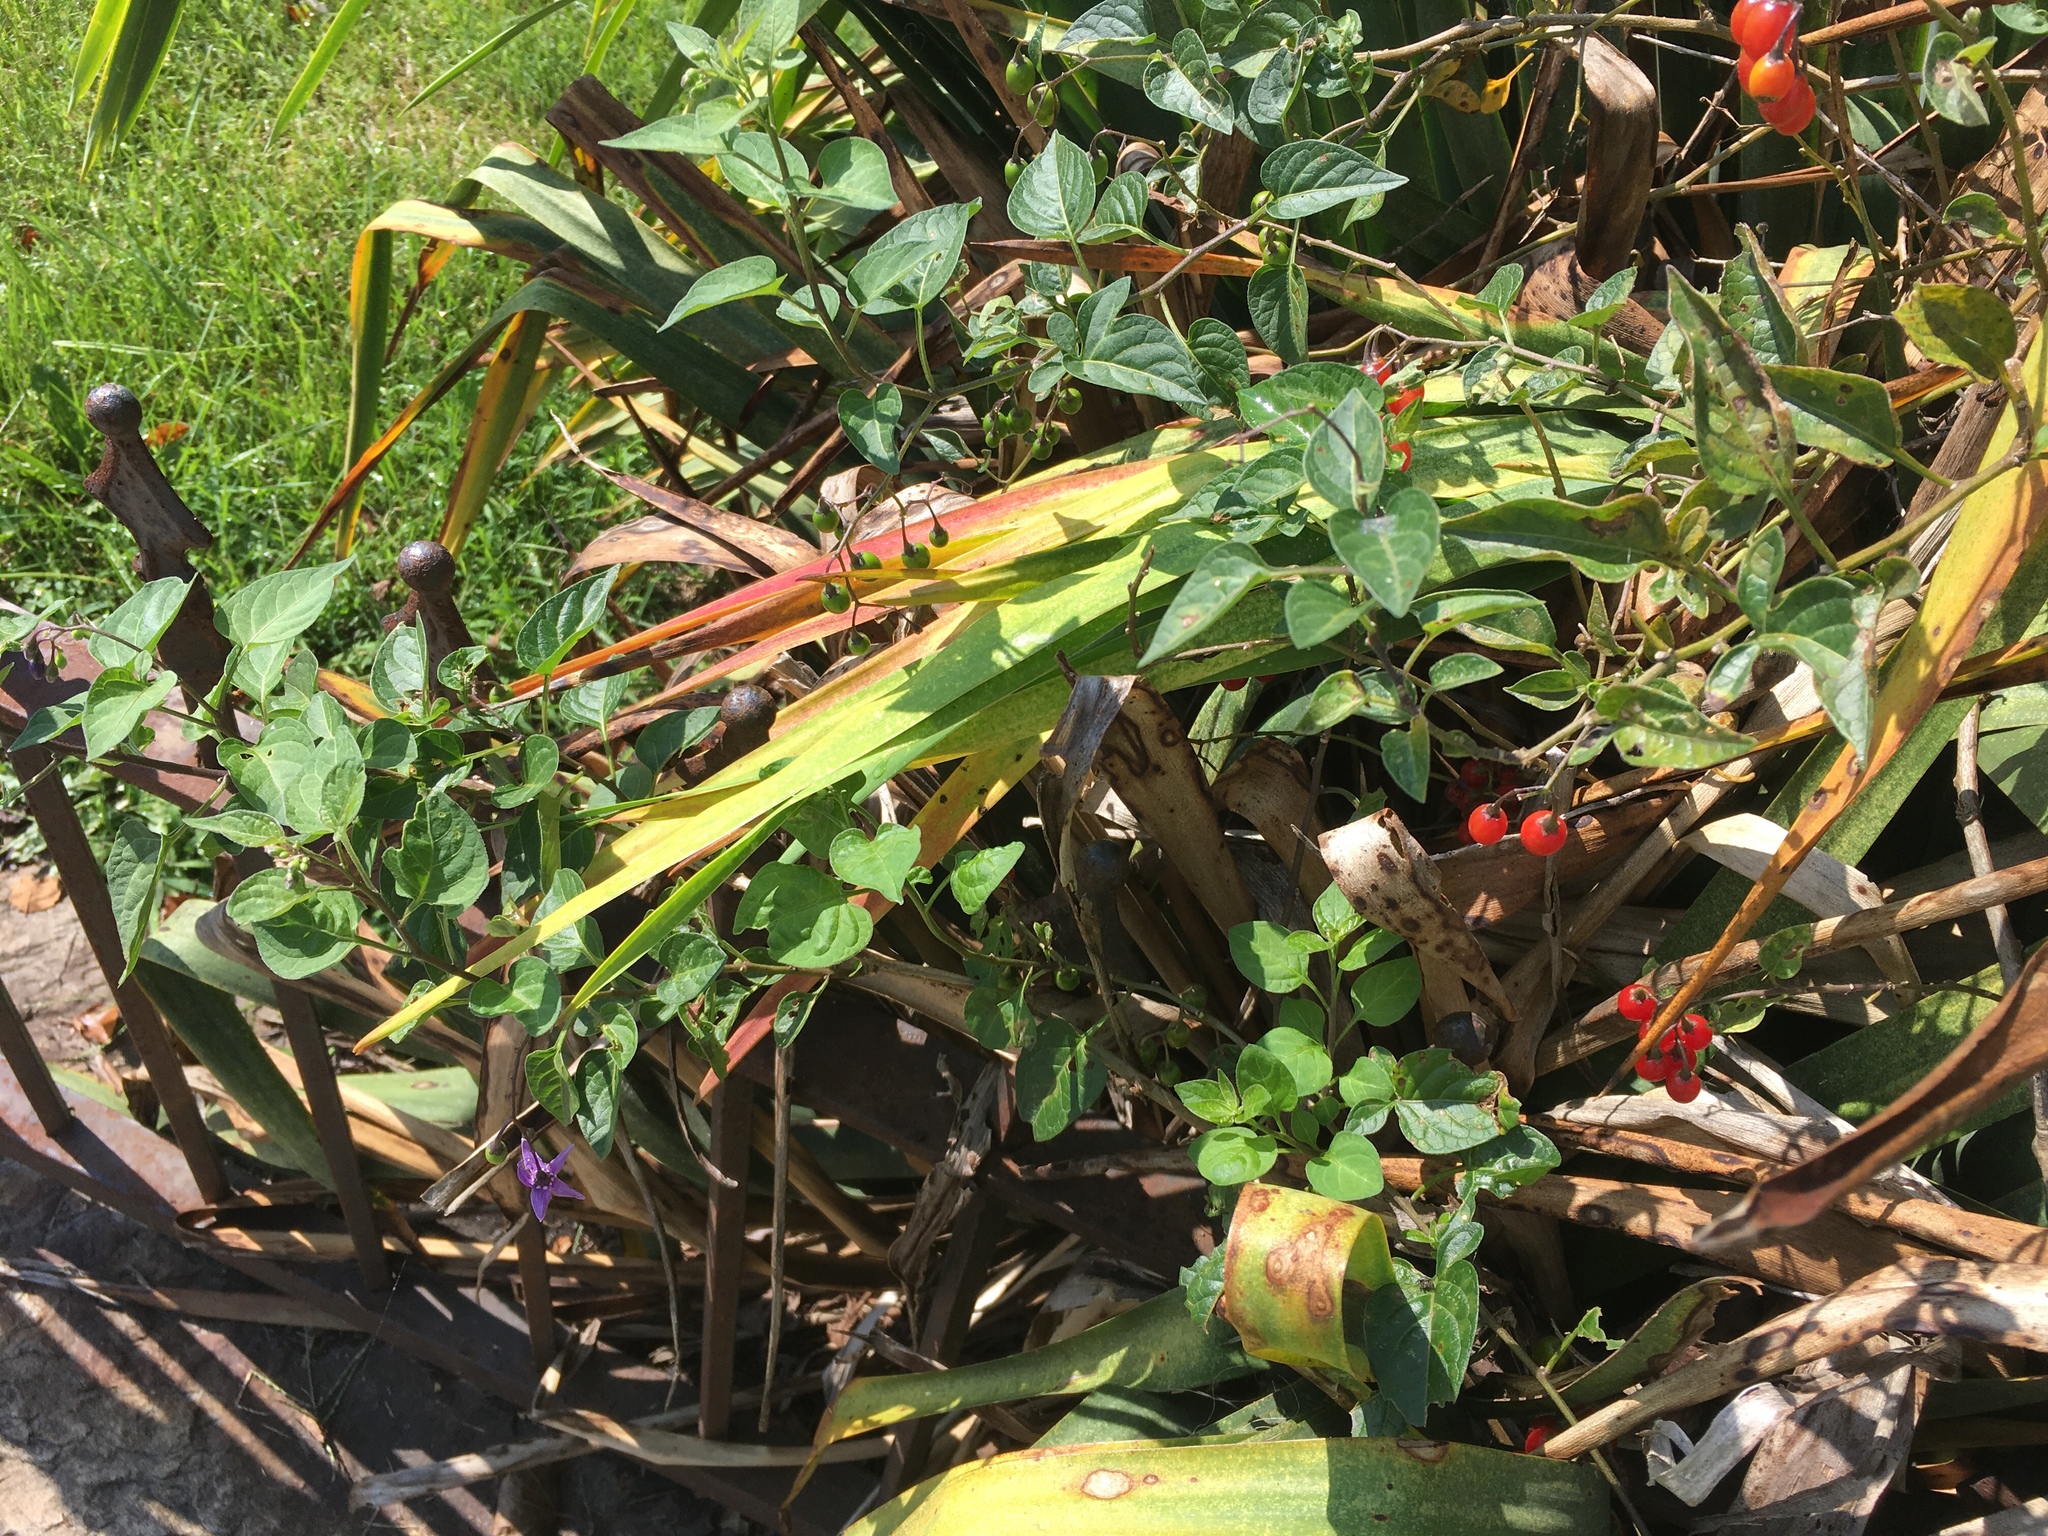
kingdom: Plantae
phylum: Tracheophyta
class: Magnoliopsida
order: Solanales
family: Solanaceae
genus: Solanum
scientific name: Solanum dulcamara
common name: Climbing nightshade
